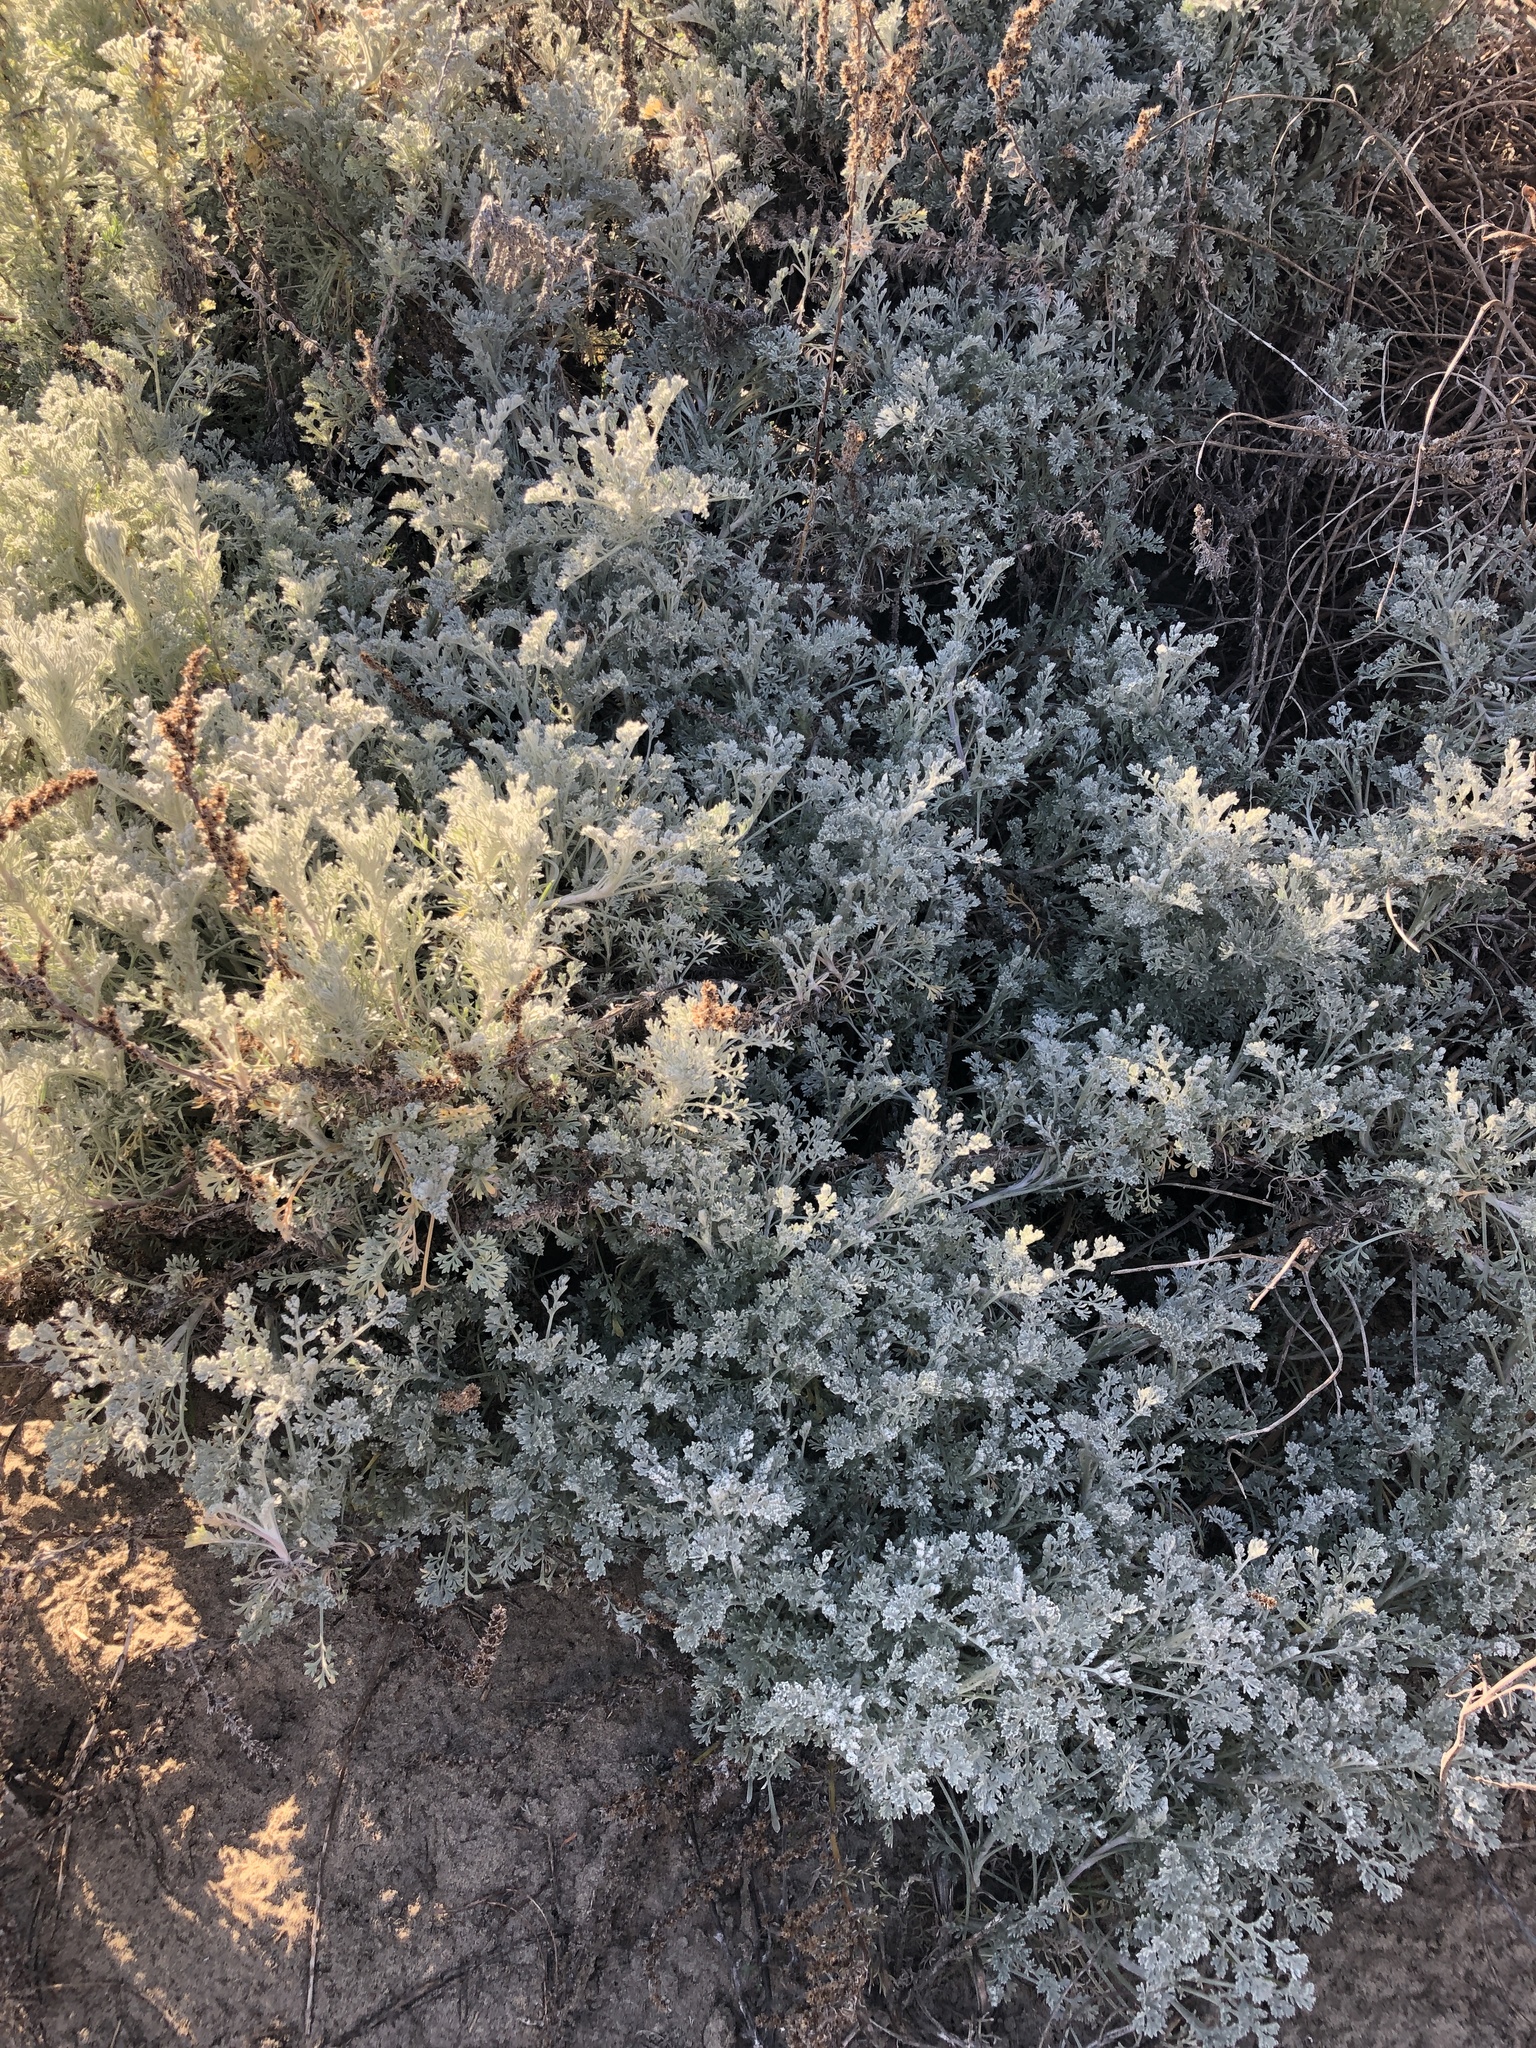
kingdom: Plantae
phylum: Tracheophyta
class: Magnoliopsida
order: Asterales
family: Asteraceae
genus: Artemisia
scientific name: Artemisia pycnocephala
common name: Coastal sagewort
